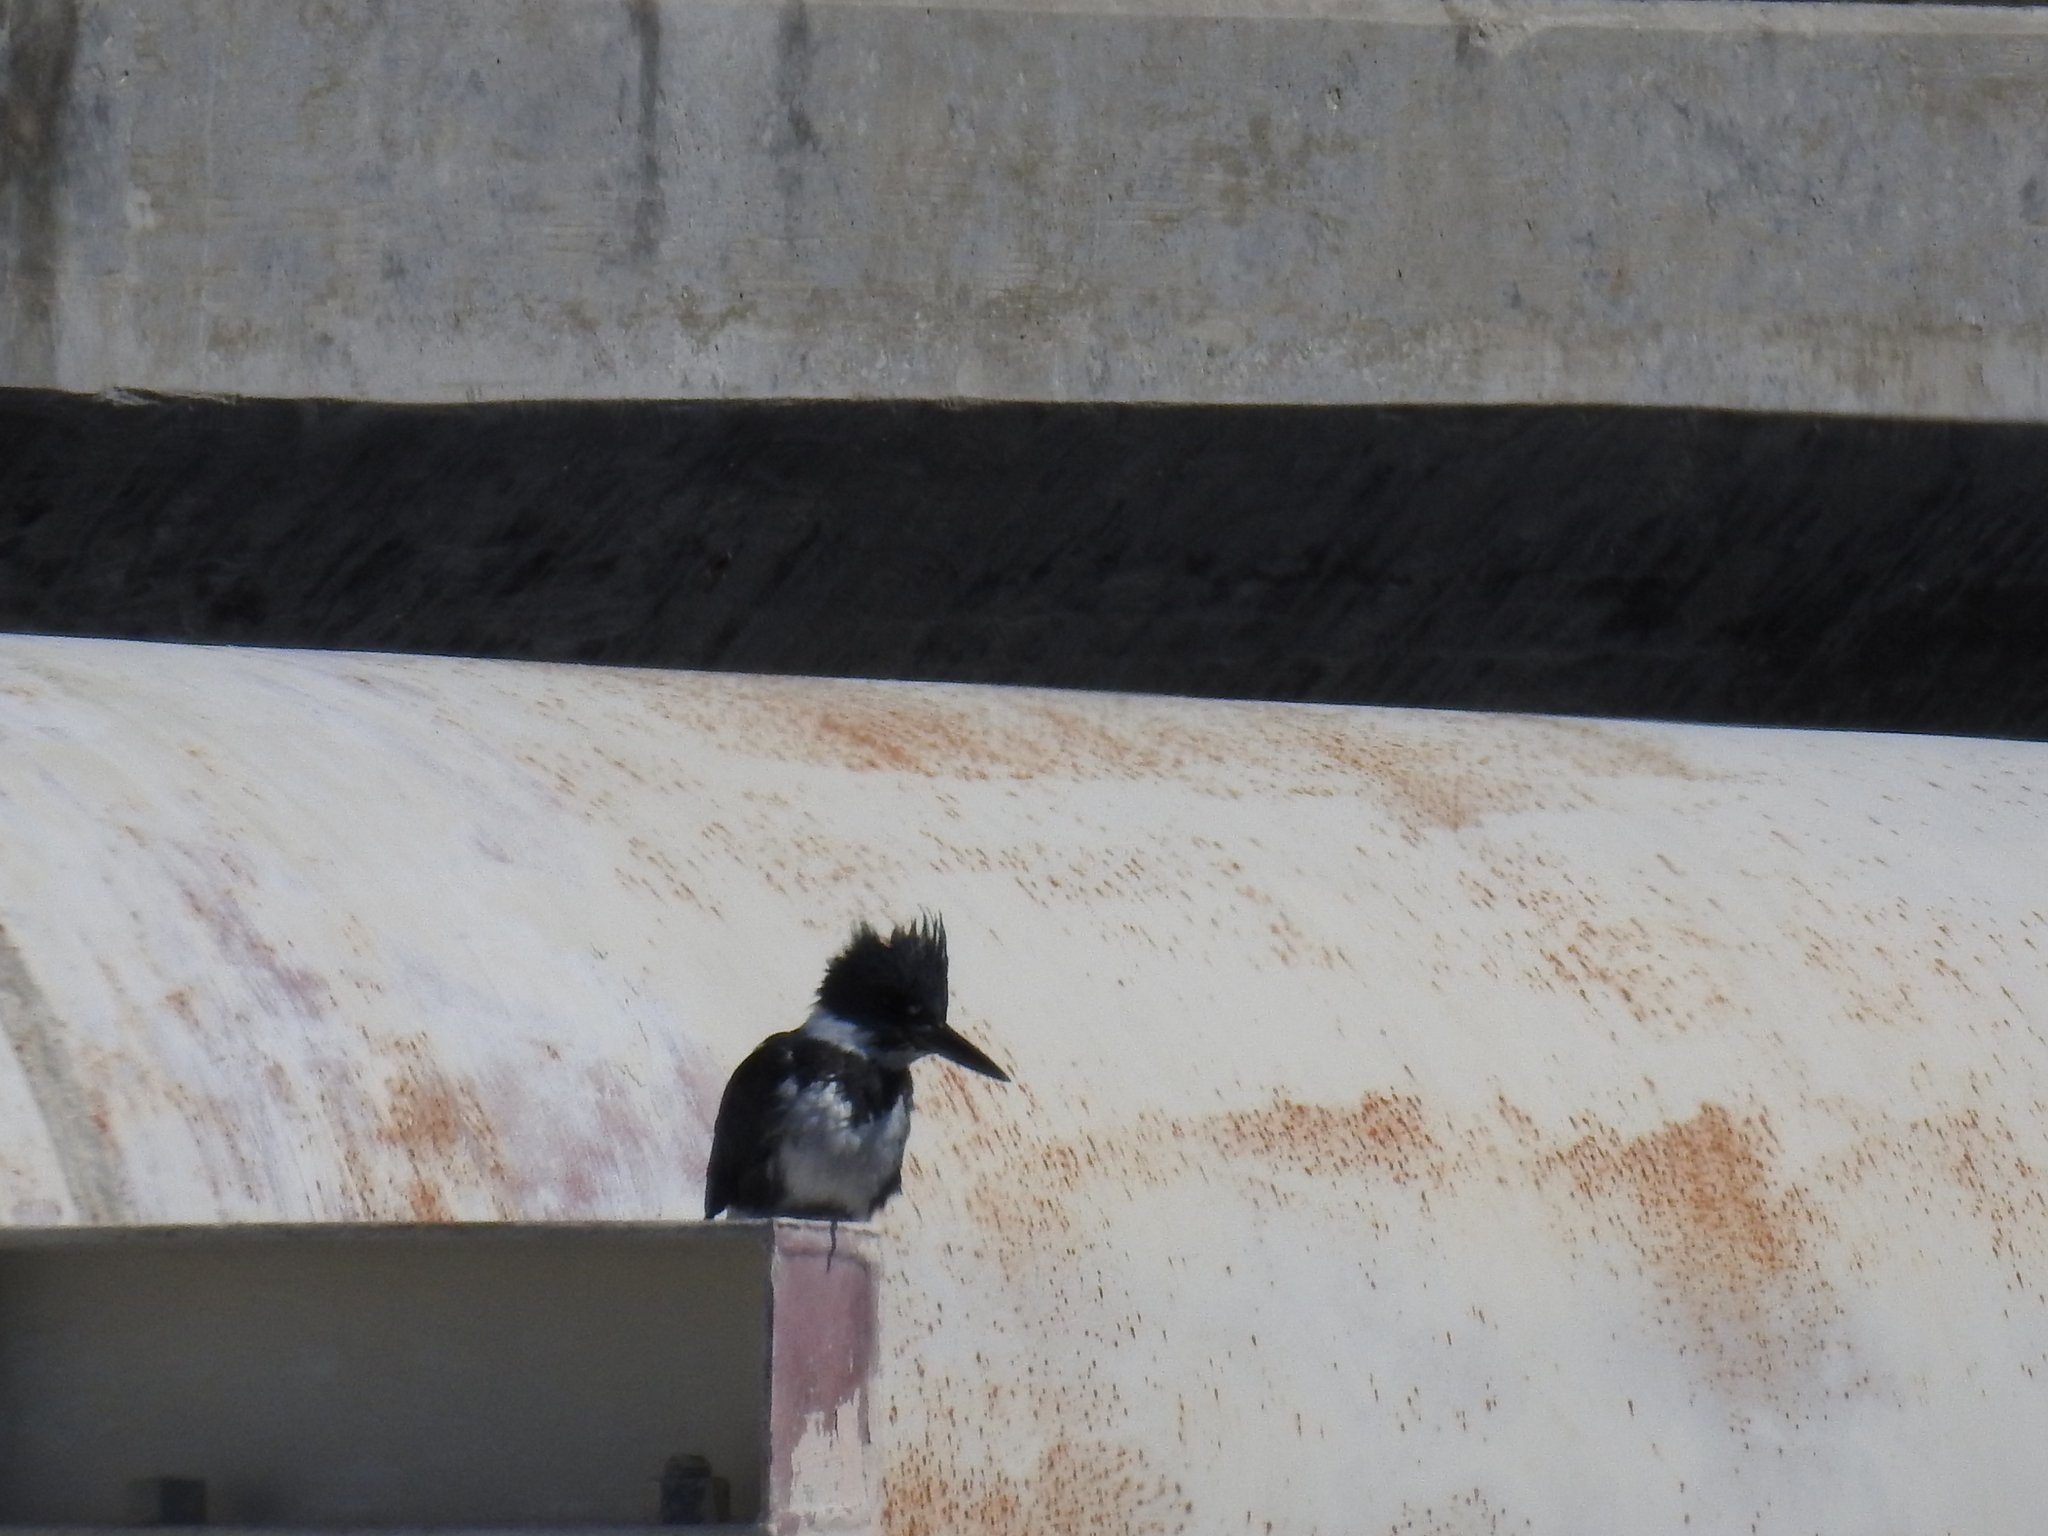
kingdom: Animalia
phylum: Chordata
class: Aves
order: Coraciiformes
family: Alcedinidae
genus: Megaceryle
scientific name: Megaceryle alcyon
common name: Belted kingfisher
